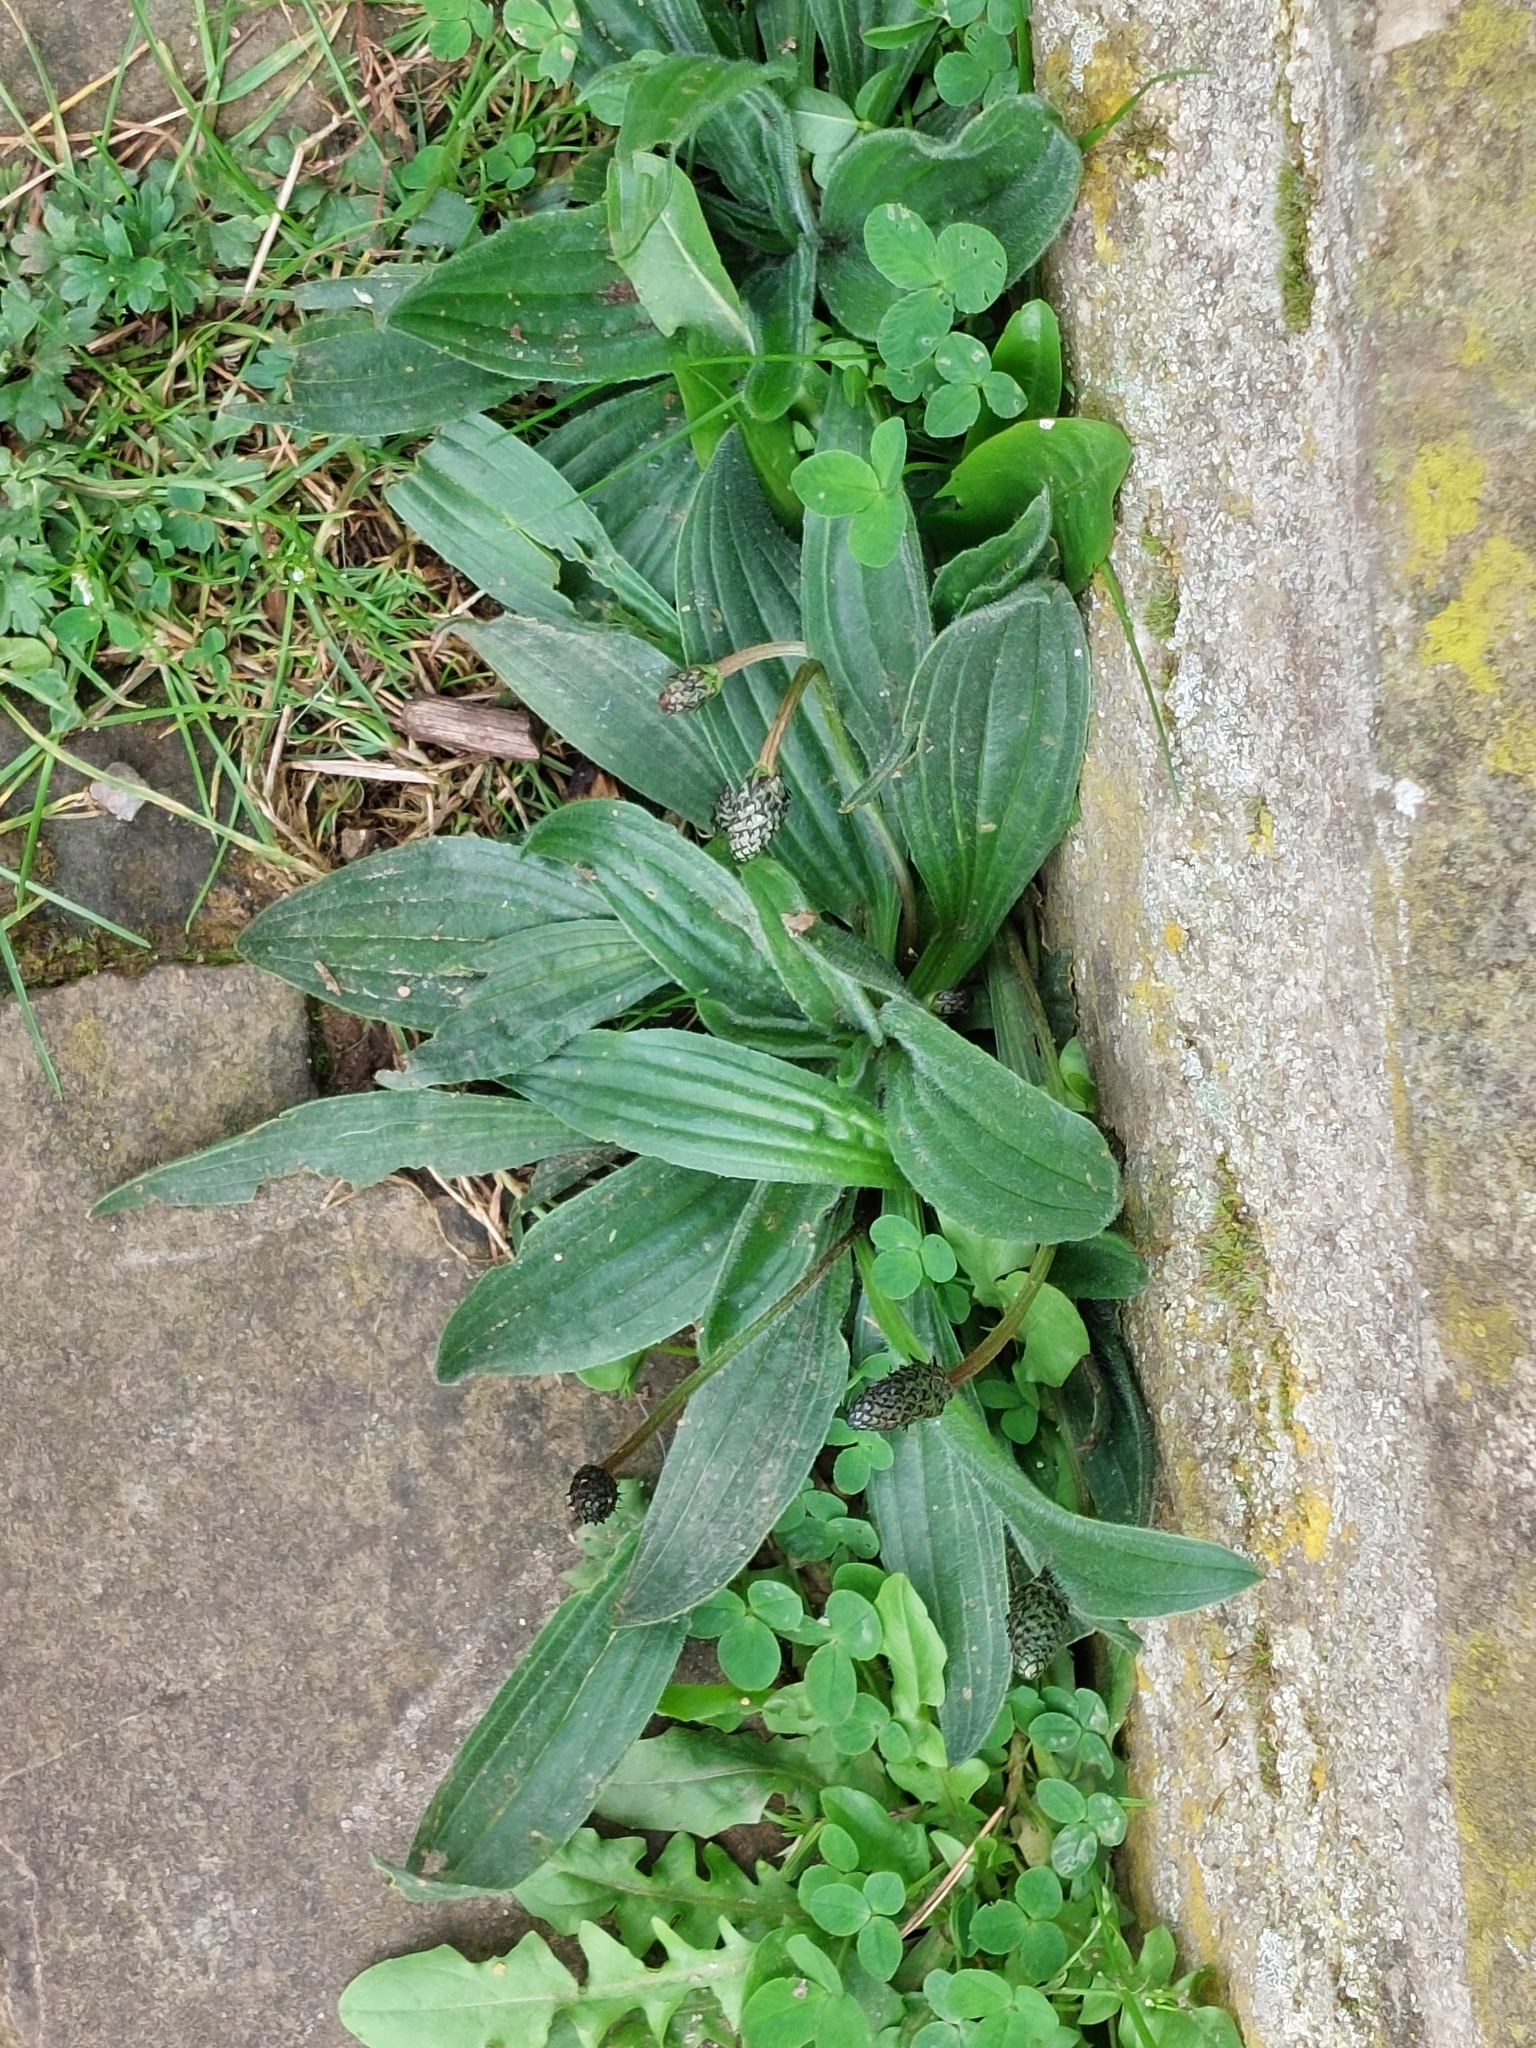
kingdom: Plantae
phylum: Tracheophyta
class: Magnoliopsida
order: Lamiales
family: Plantaginaceae
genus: Plantago
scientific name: Plantago lanceolata
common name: Ribwort plantain
